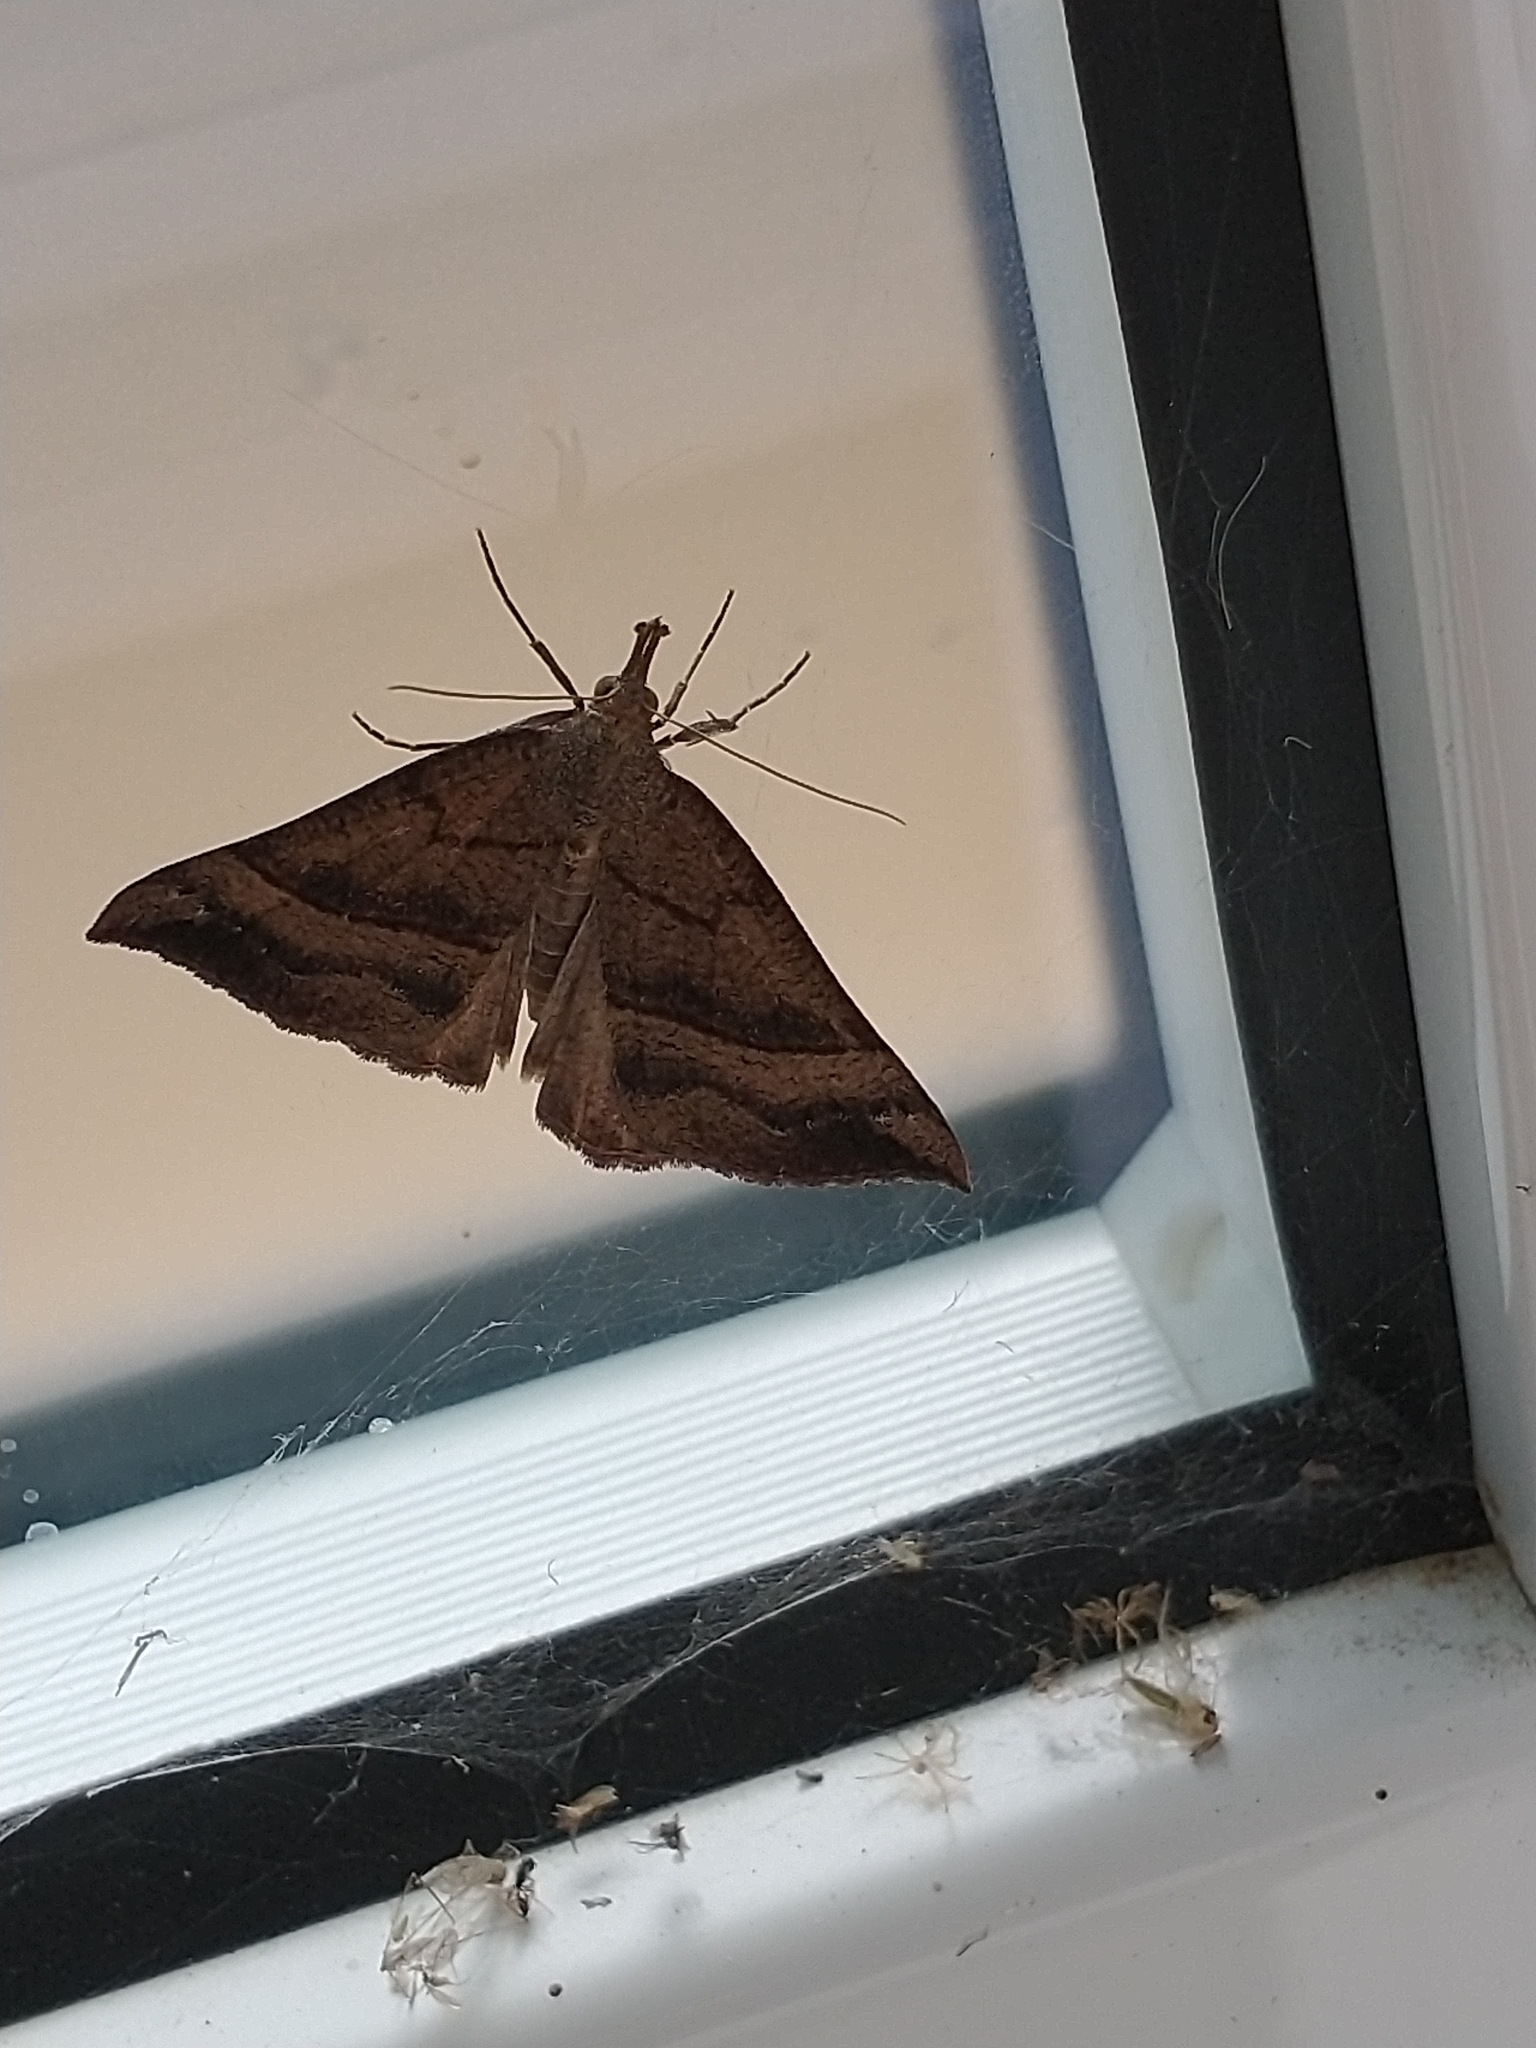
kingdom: Animalia
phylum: Arthropoda
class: Insecta
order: Lepidoptera
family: Erebidae
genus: Hypena
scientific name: Hypena proboscidalis
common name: Snout
